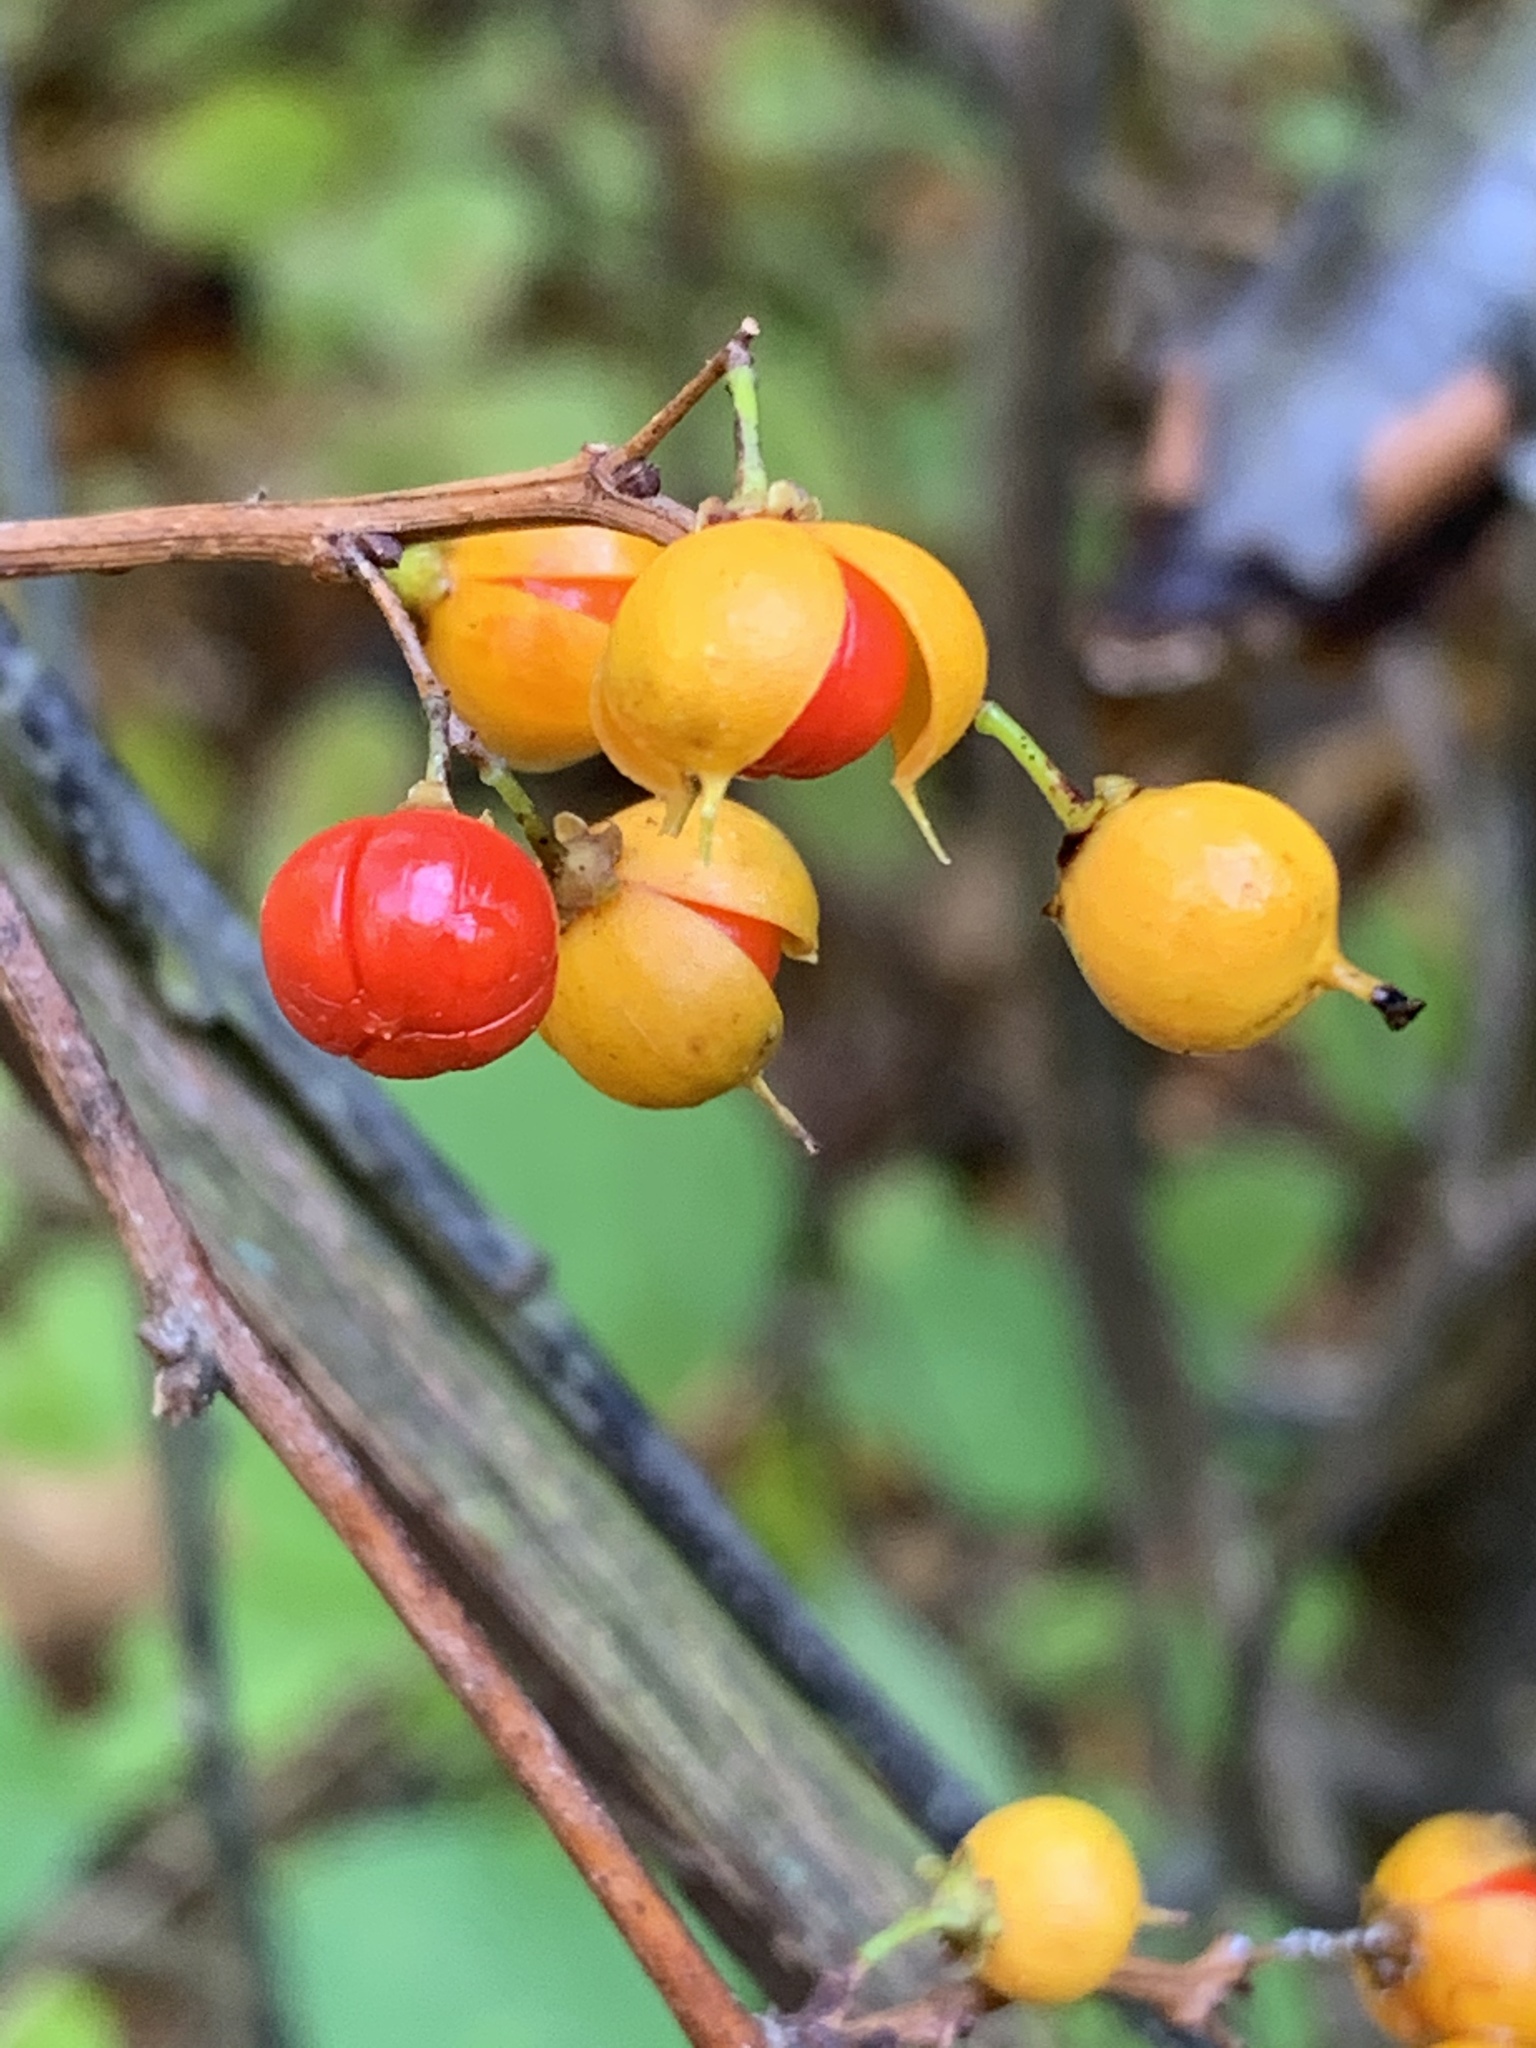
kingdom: Plantae
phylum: Tracheophyta
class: Magnoliopsida
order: Celastrales
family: Celastraceae
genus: Celastrus
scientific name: Celastrus orbiculatus
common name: Oriental bittersweet
